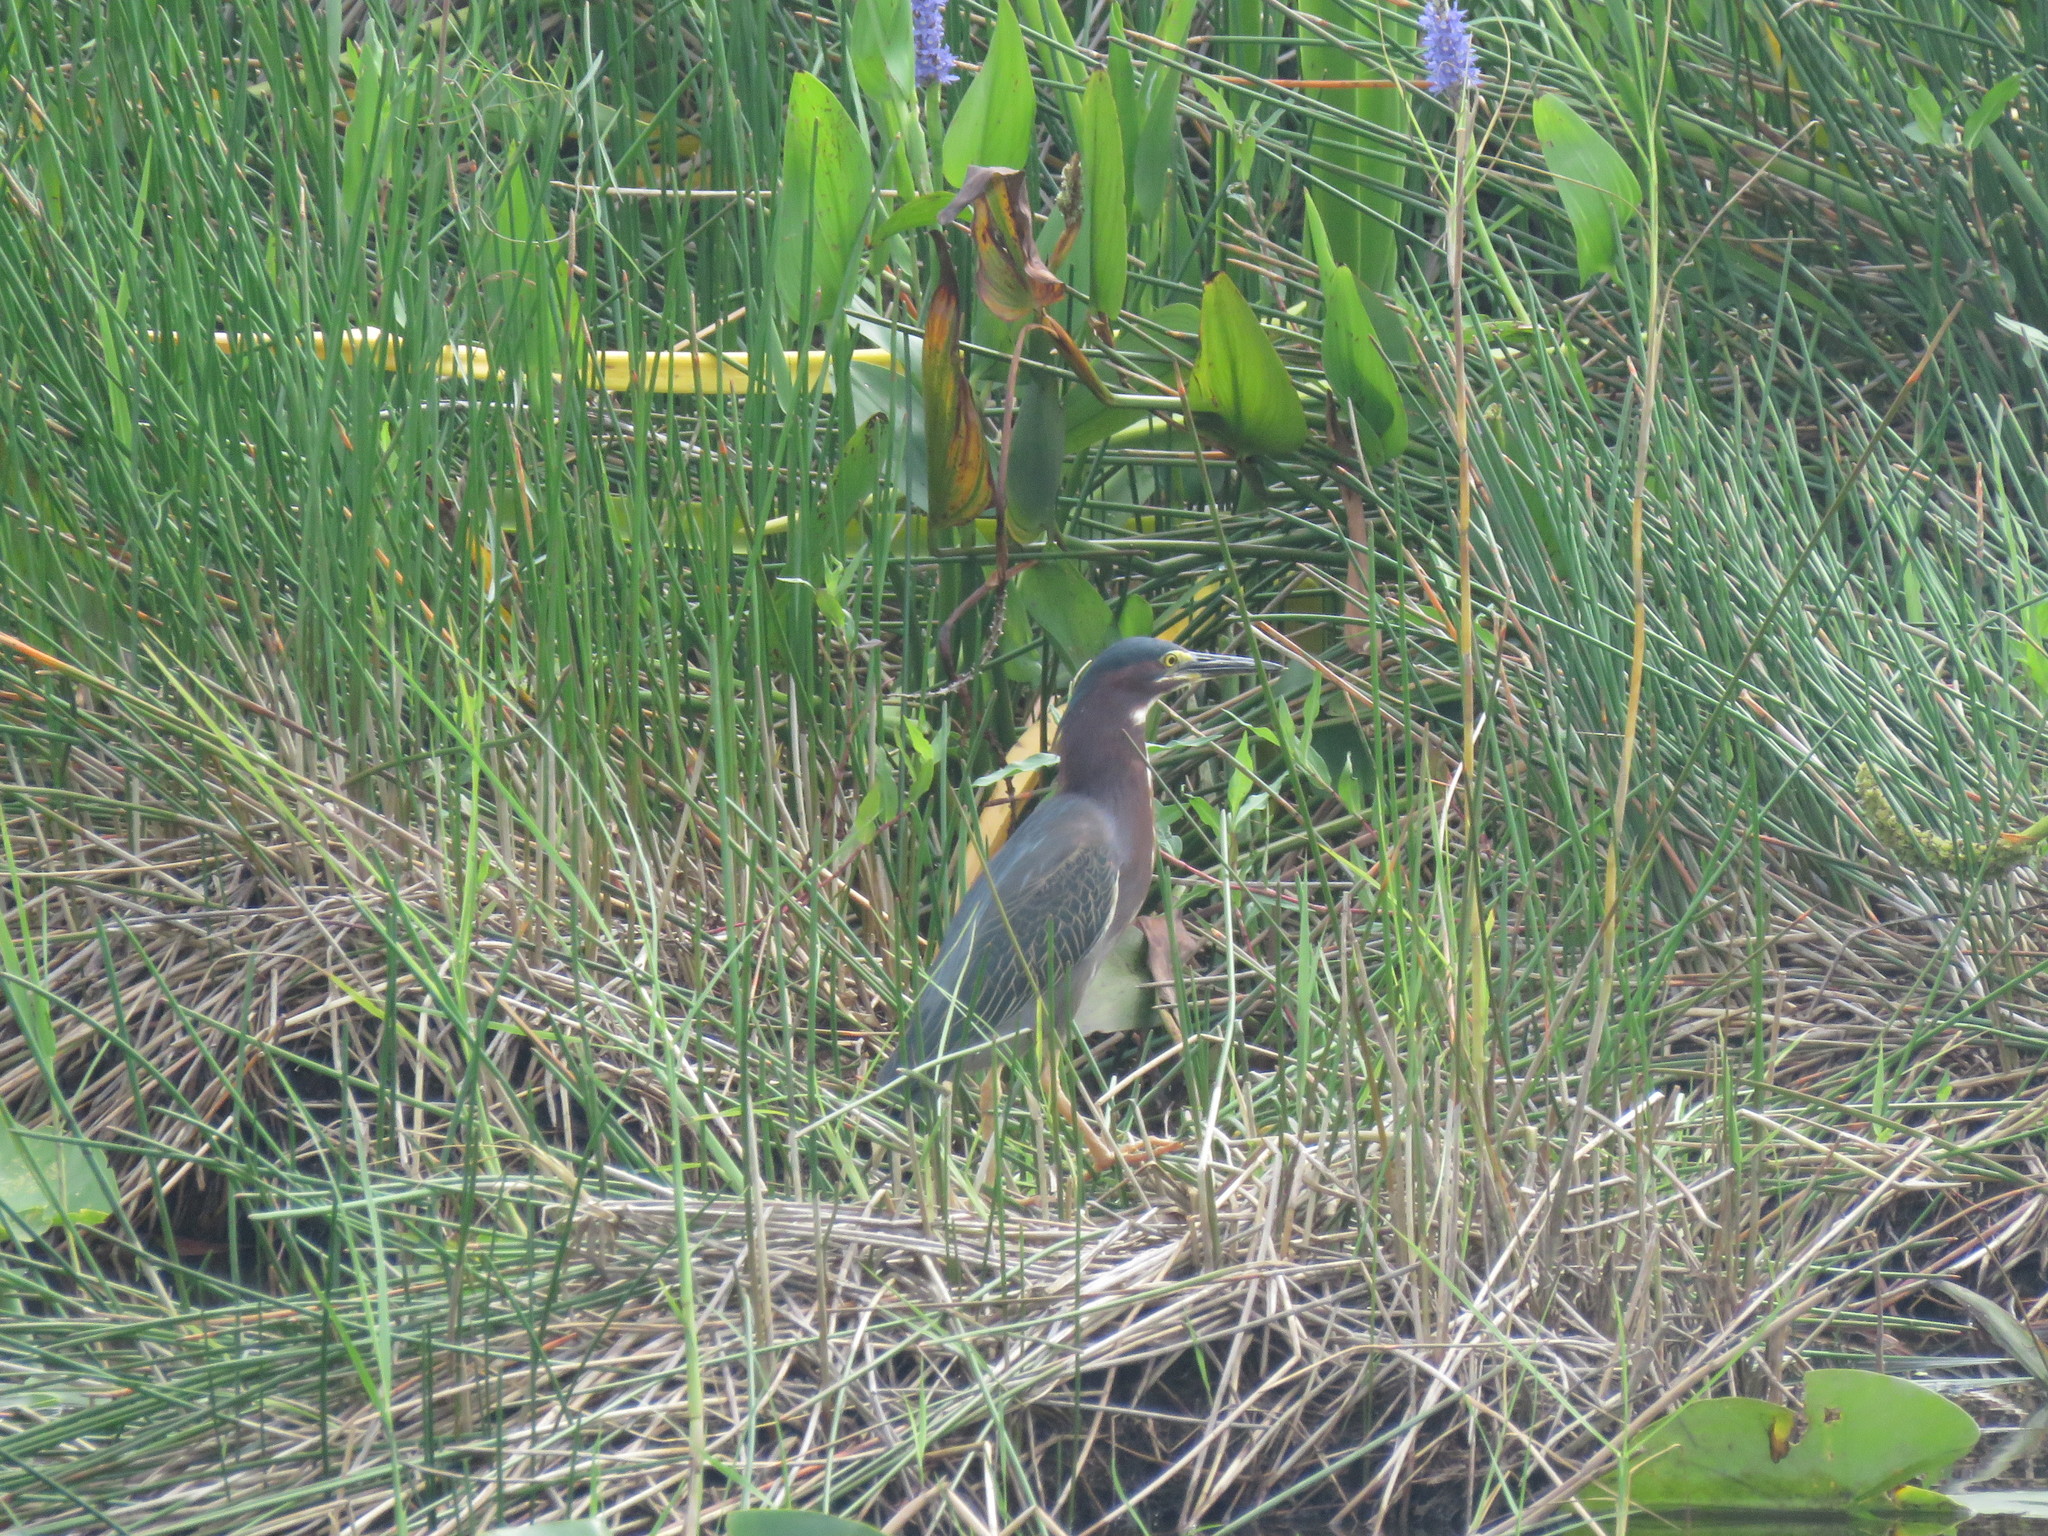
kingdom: Animalia
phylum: Chordata
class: Aves
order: Pelecaniformes
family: Ardeidae
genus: Butorides
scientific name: Butorides virescens
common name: Green heron
